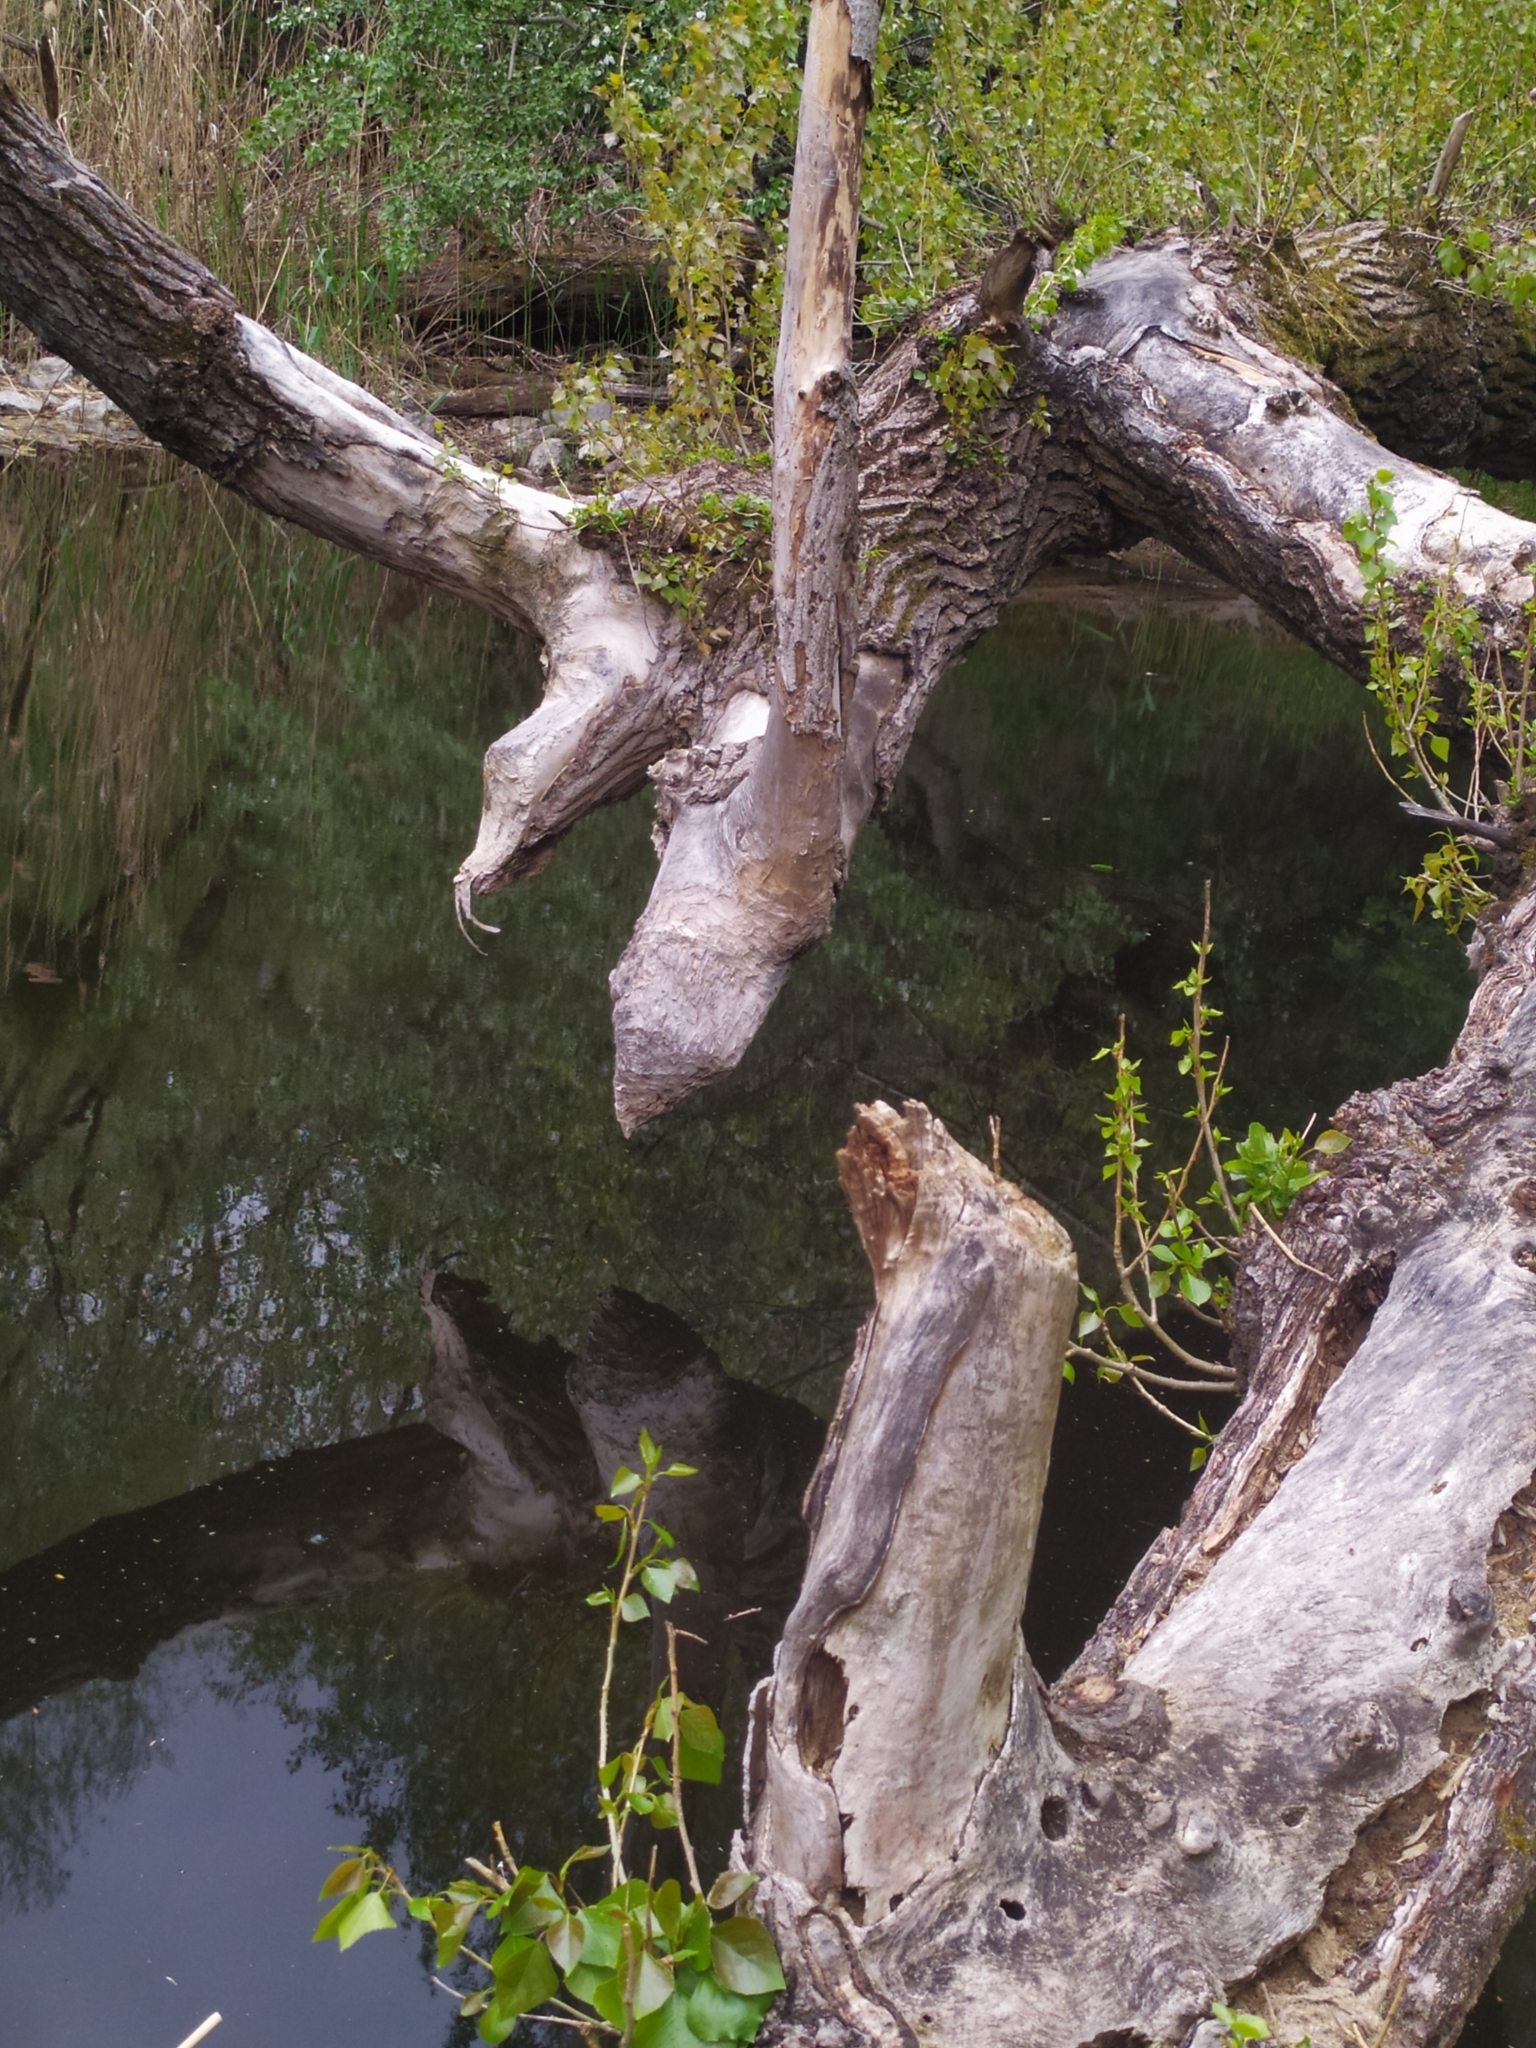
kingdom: Animalia
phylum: Chordata
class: Mammalia
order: Rodentia
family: Castoridae
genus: Castor
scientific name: Castor fiber
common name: Eurasian beaver
